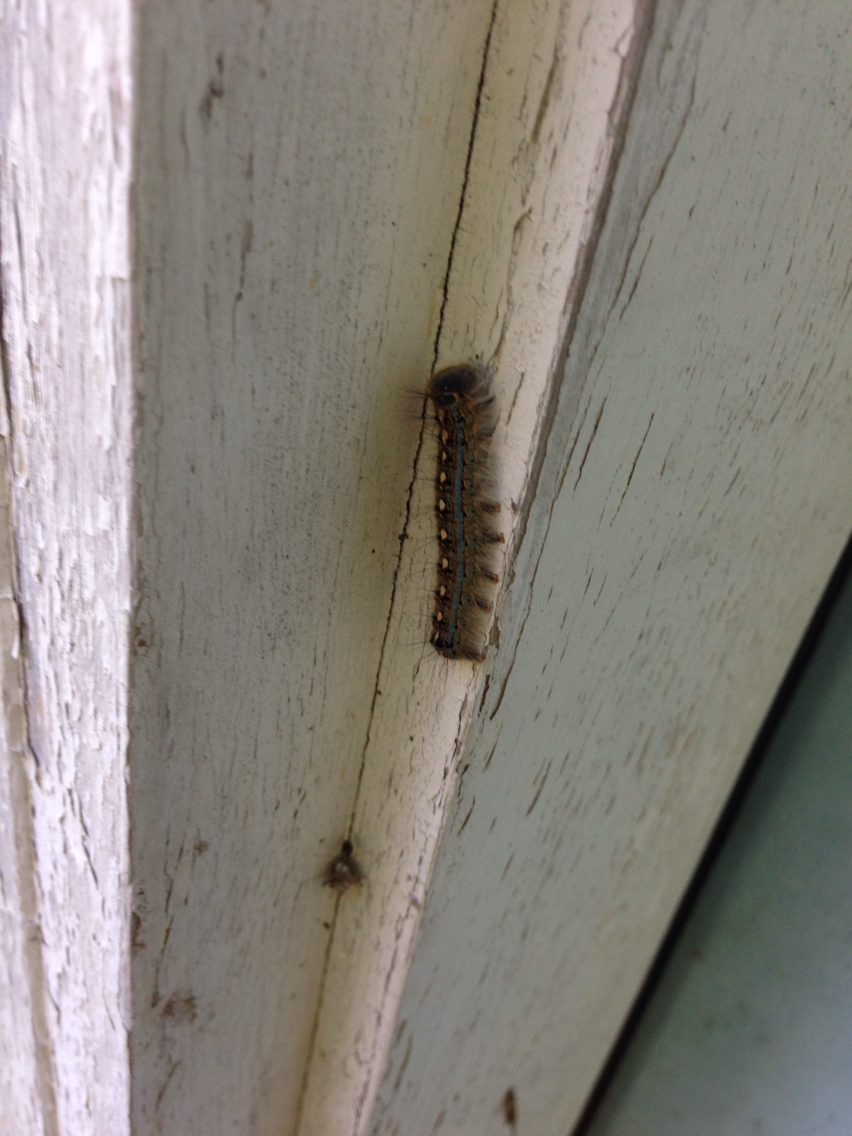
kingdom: Animalia
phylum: Arthropoda
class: Insecta
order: Lepidoptera
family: Lasiocampidae
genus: Malacosoma
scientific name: Malacosoma disstria
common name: Forest tent caterpillar
